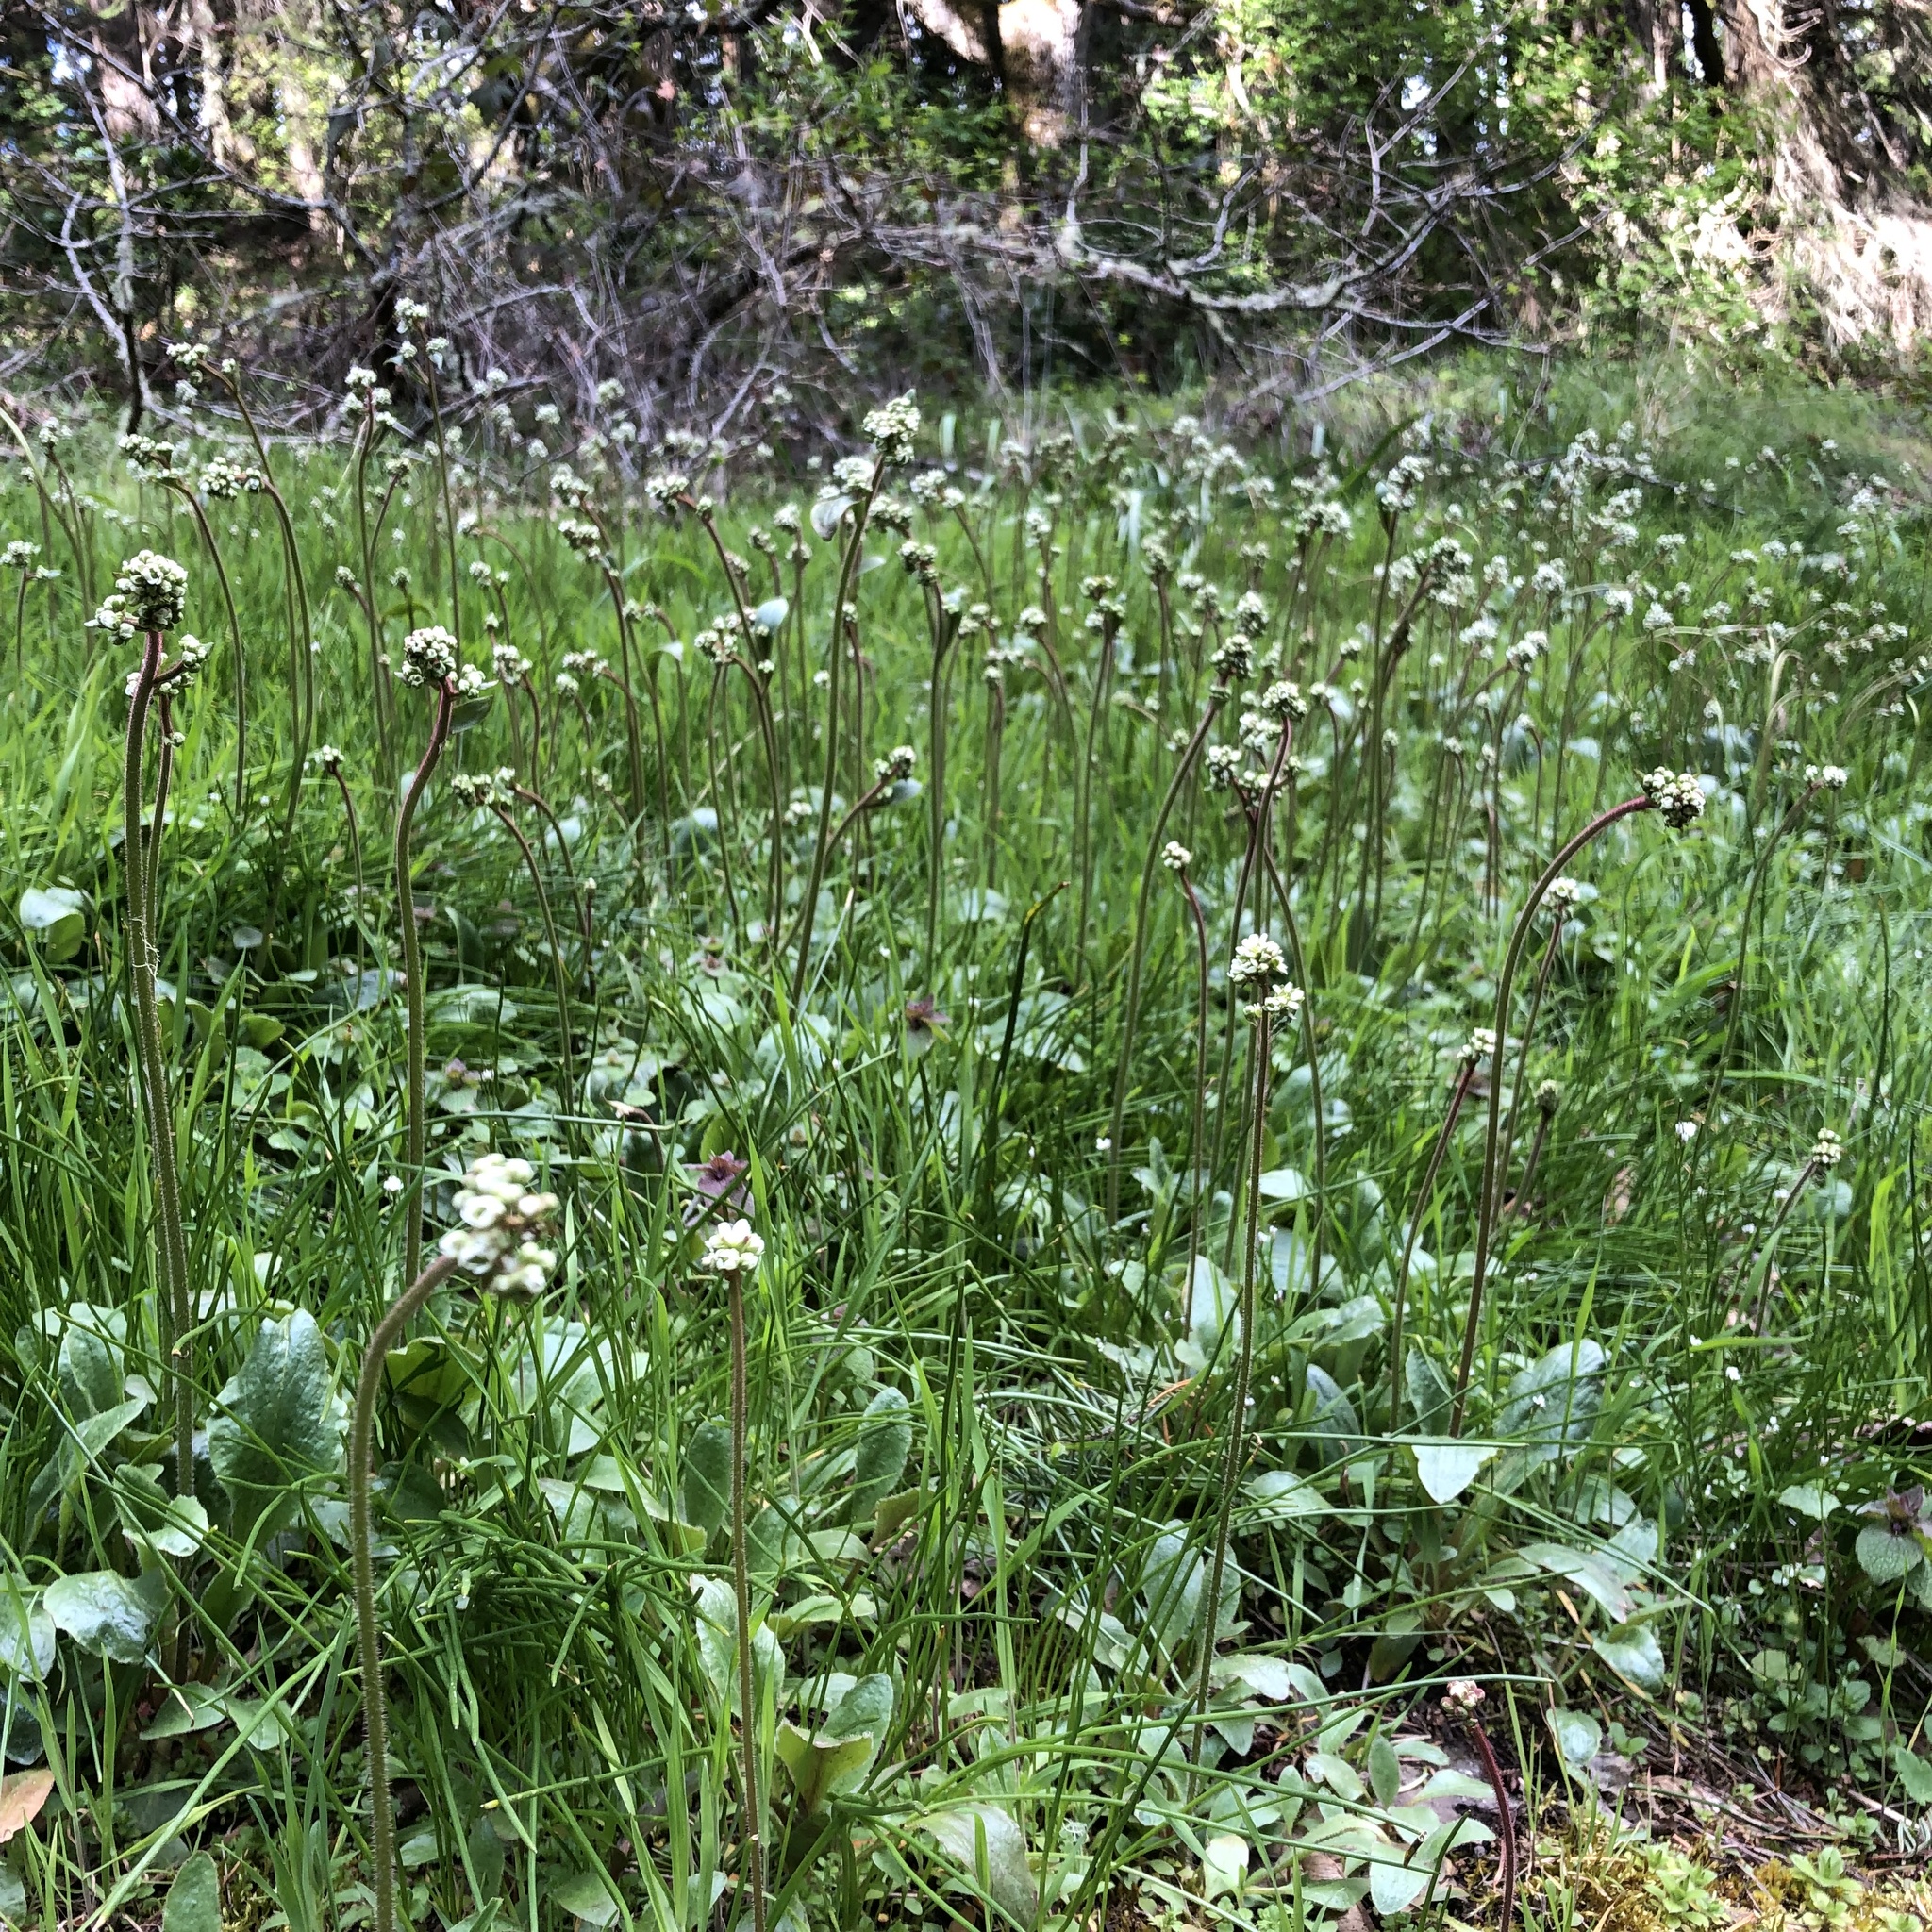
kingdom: Plantae
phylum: Tracheophyta
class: Magnoliopsida
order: Saxifragales
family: Saxifragaceae
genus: Micranthes
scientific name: Micranthes integrifolia
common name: Wholeleaf saxifrage
